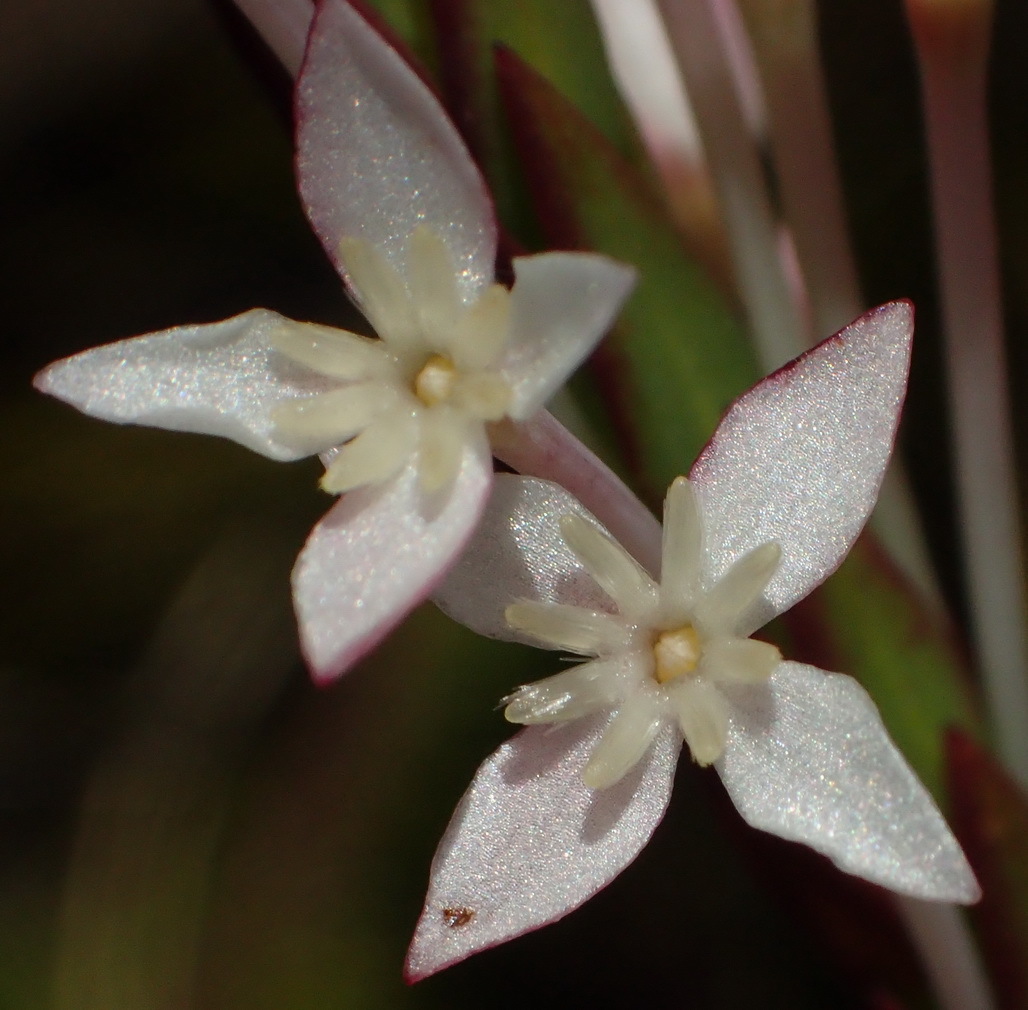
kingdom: Plantae
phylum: Tracheophyta
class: Magnoliopsida
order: Malvales
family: Thymelaeaceae
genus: Struthiola
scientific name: Struthiola myrsinites
